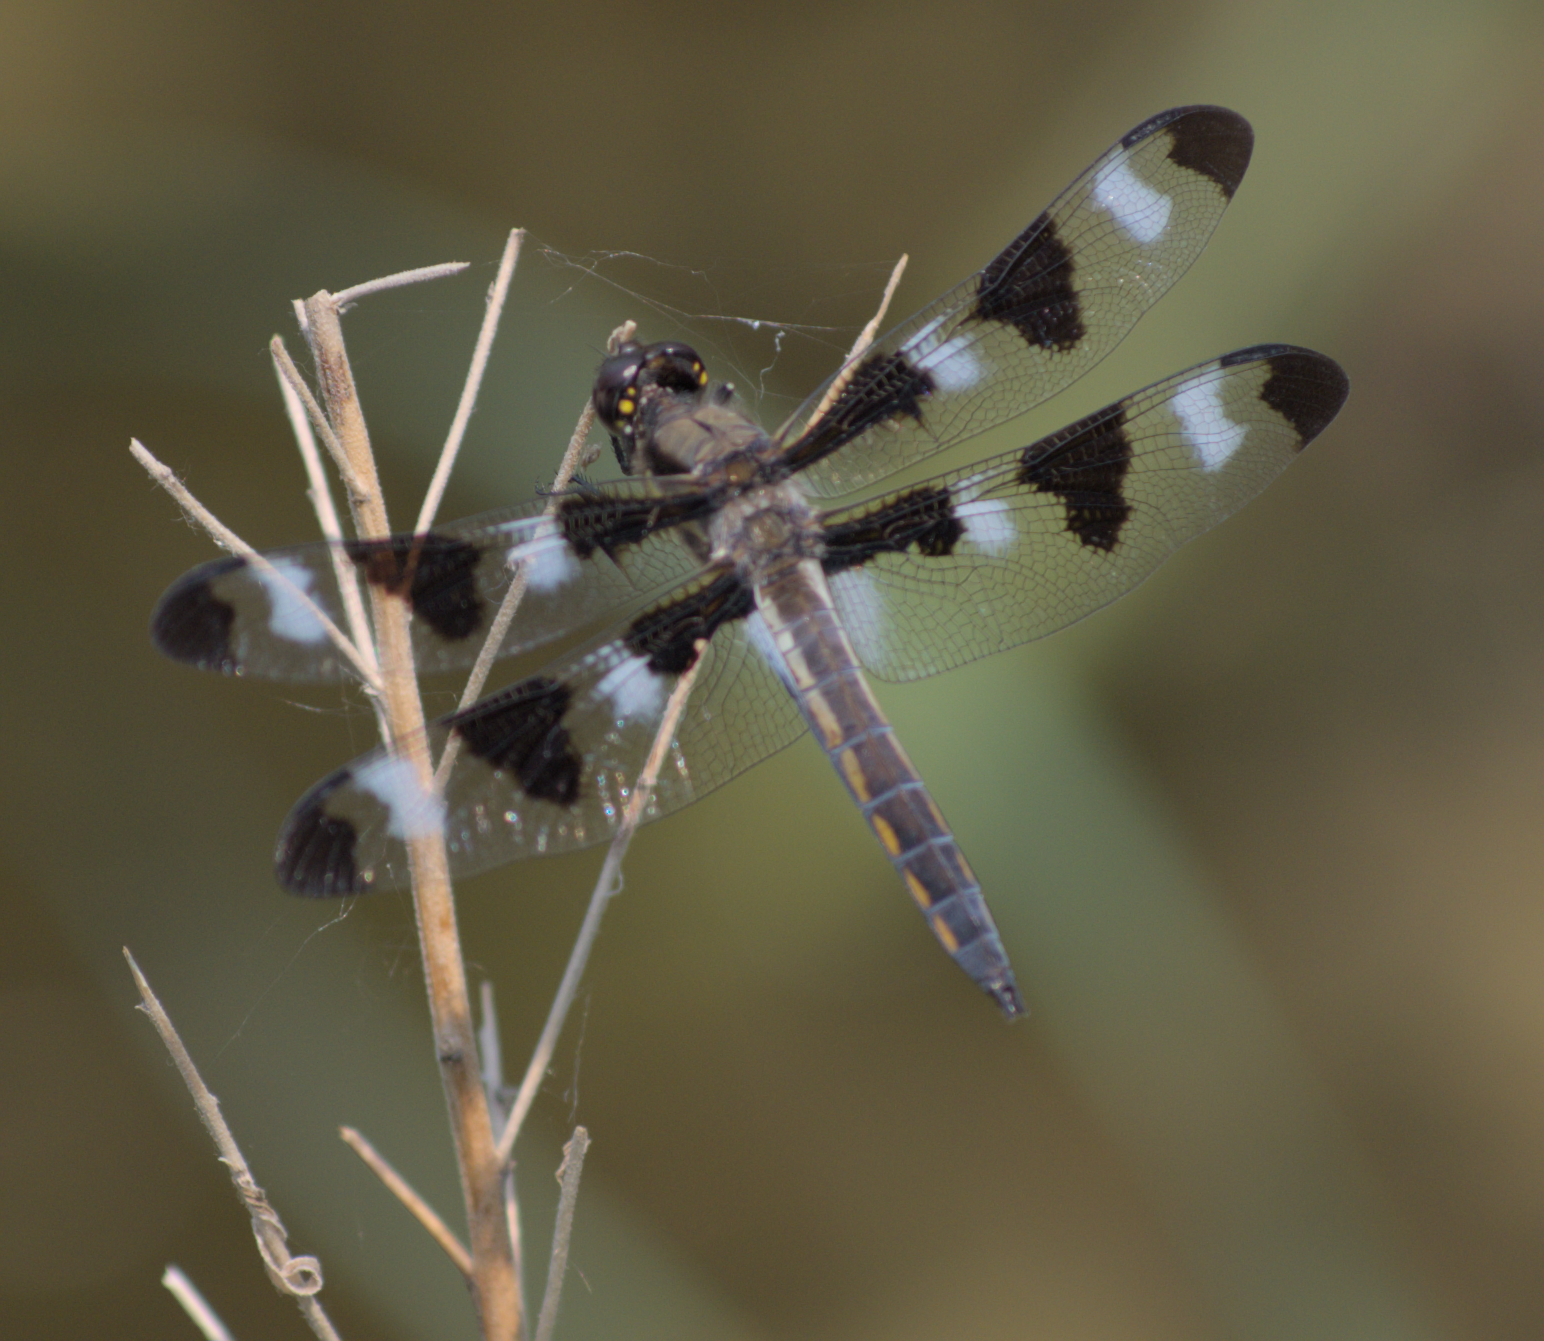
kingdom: Animalia
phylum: Arthropoda
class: Insecta
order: Odonata
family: Libellulidae
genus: Libellula
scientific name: Libellula pulchella
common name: Twelve-spotted skimmer
